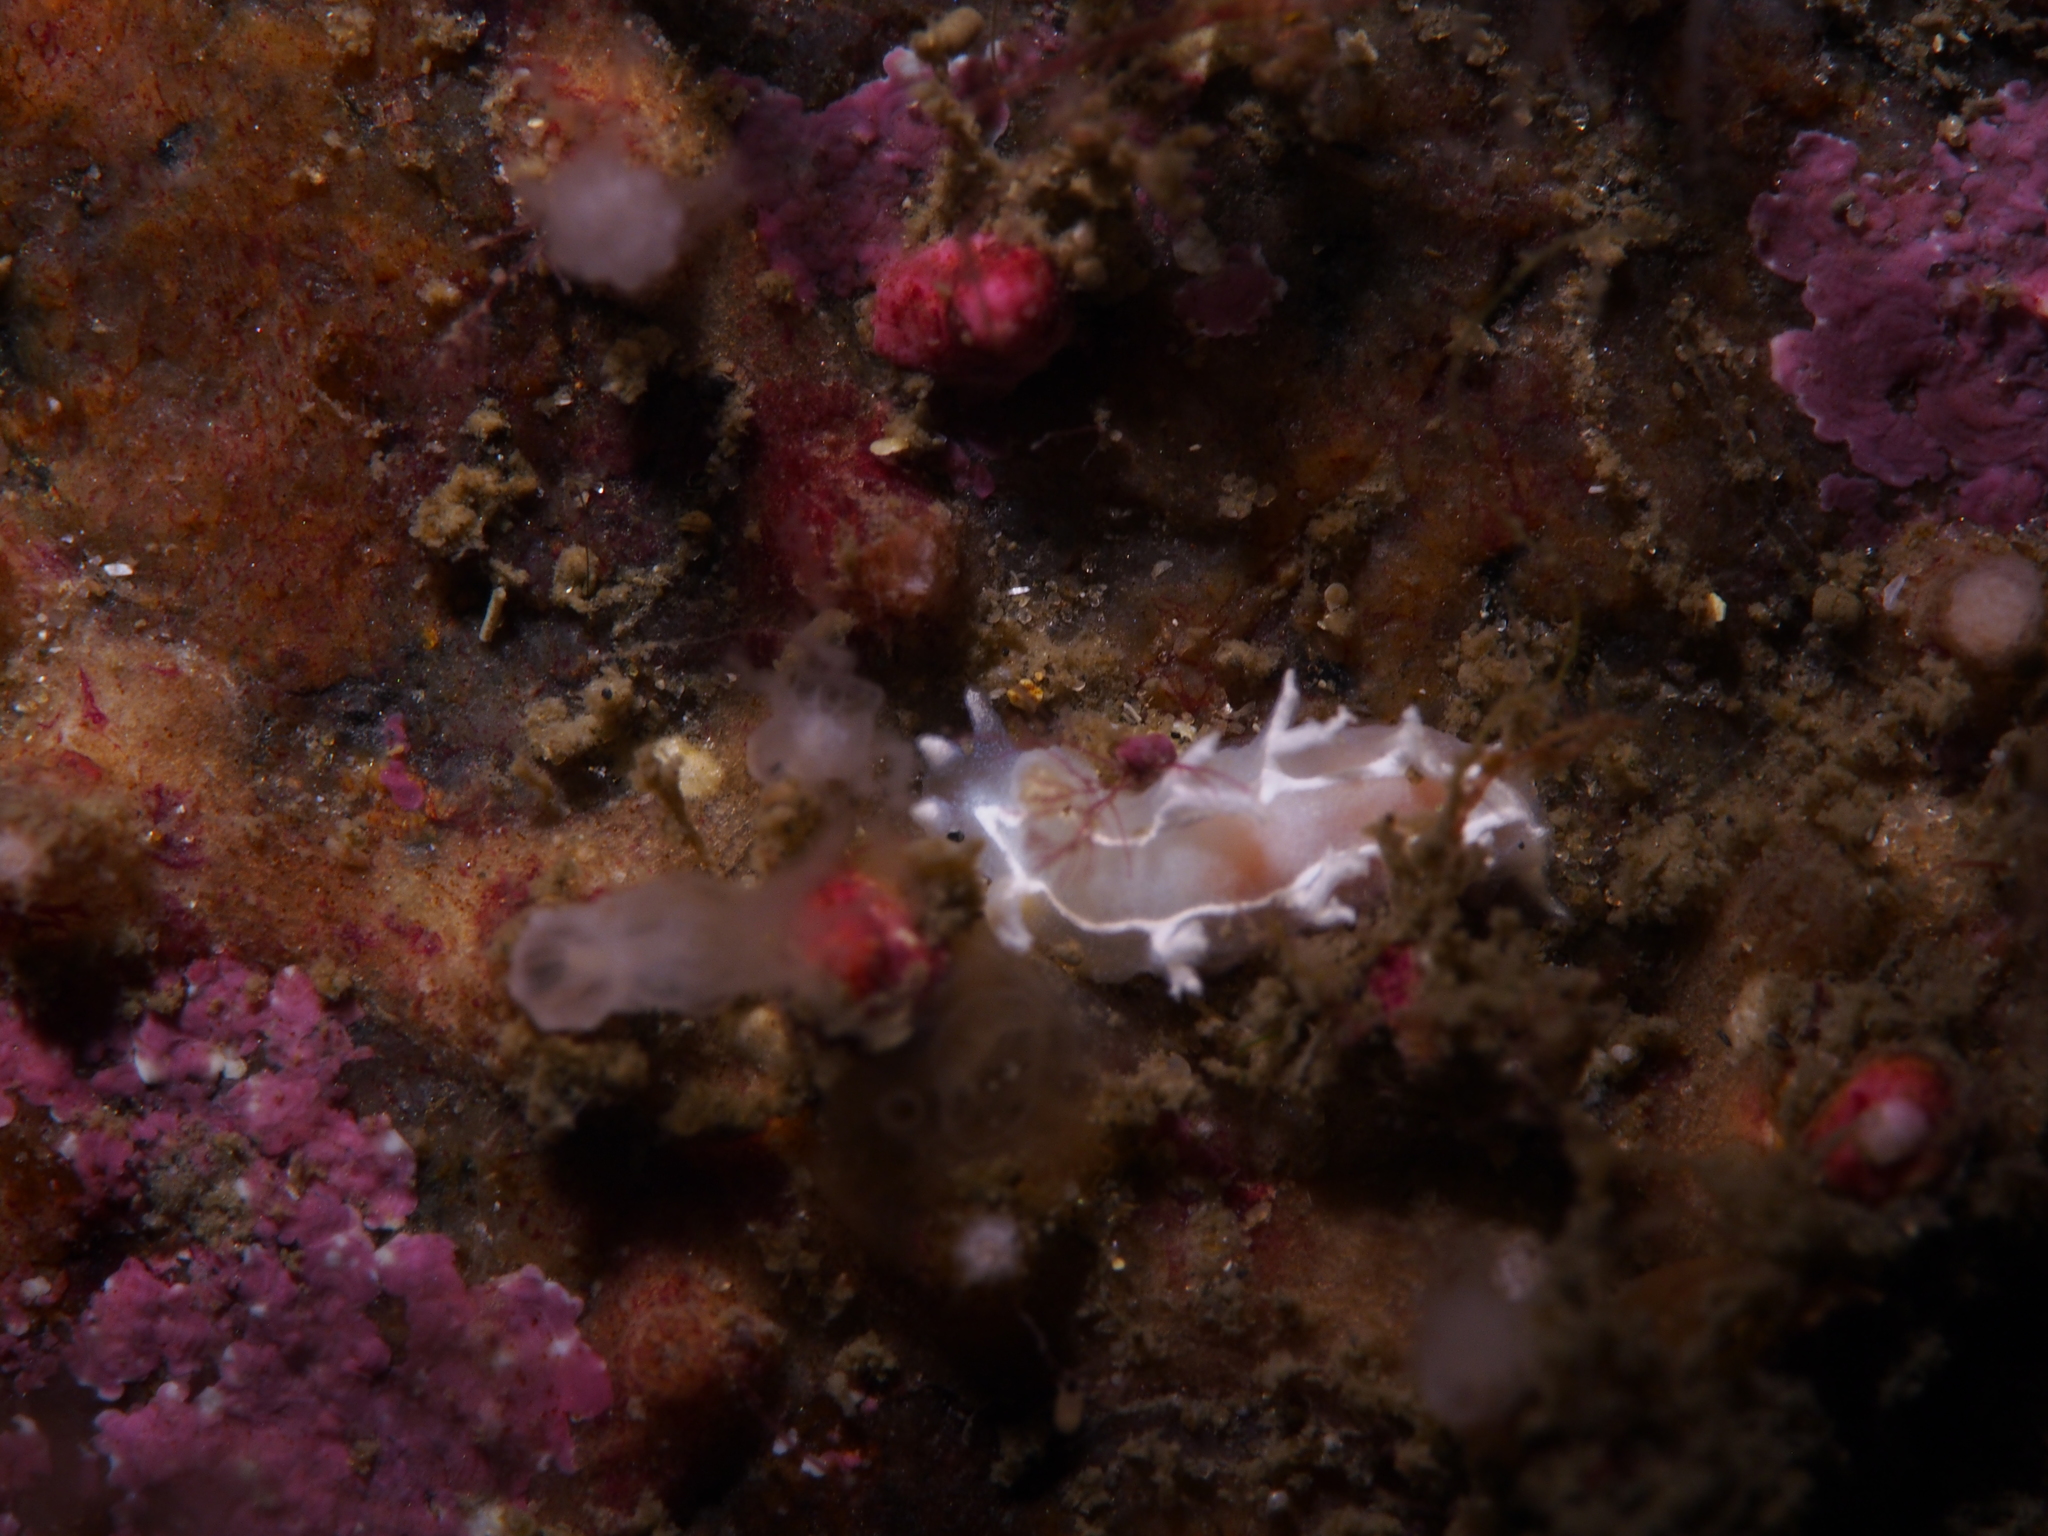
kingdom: Animalia
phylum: Mollusca
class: Gastropoda
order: Nudibranchia
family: Tritoniidae
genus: Duvaucelia
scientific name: Duvaucelia lineata
